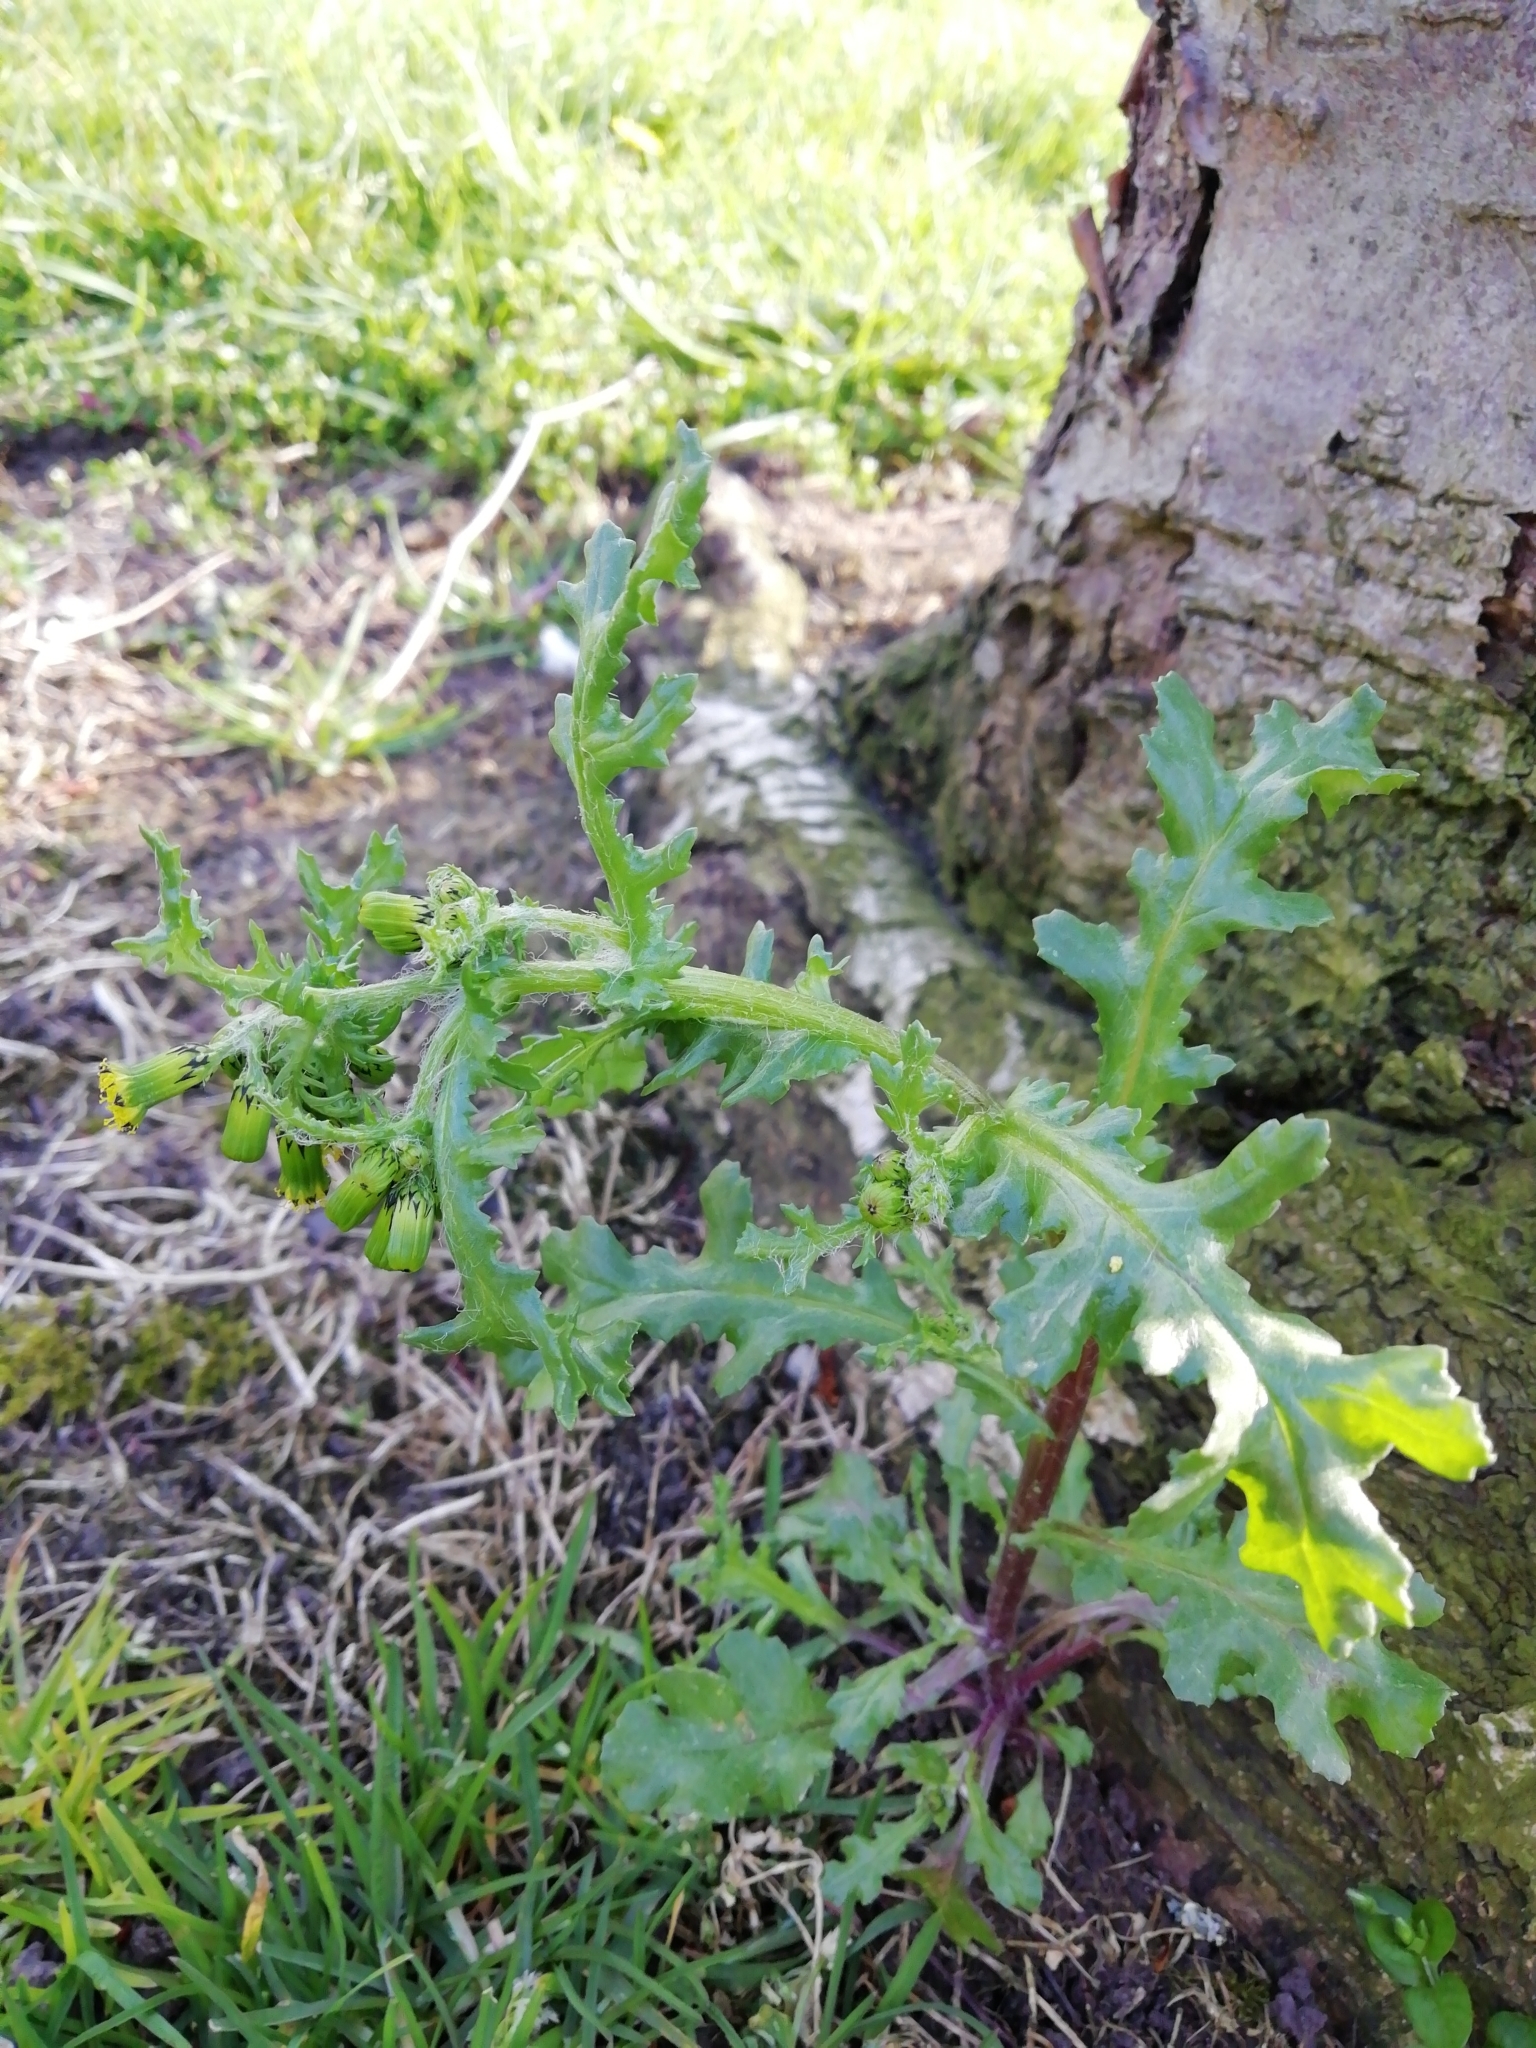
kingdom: Plantae
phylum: Tracheophyta
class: Magnoliopsida
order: Asterales
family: Asteraceae
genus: Senecio
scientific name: Senecio vulgaris
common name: Old-man-in-the-spring
